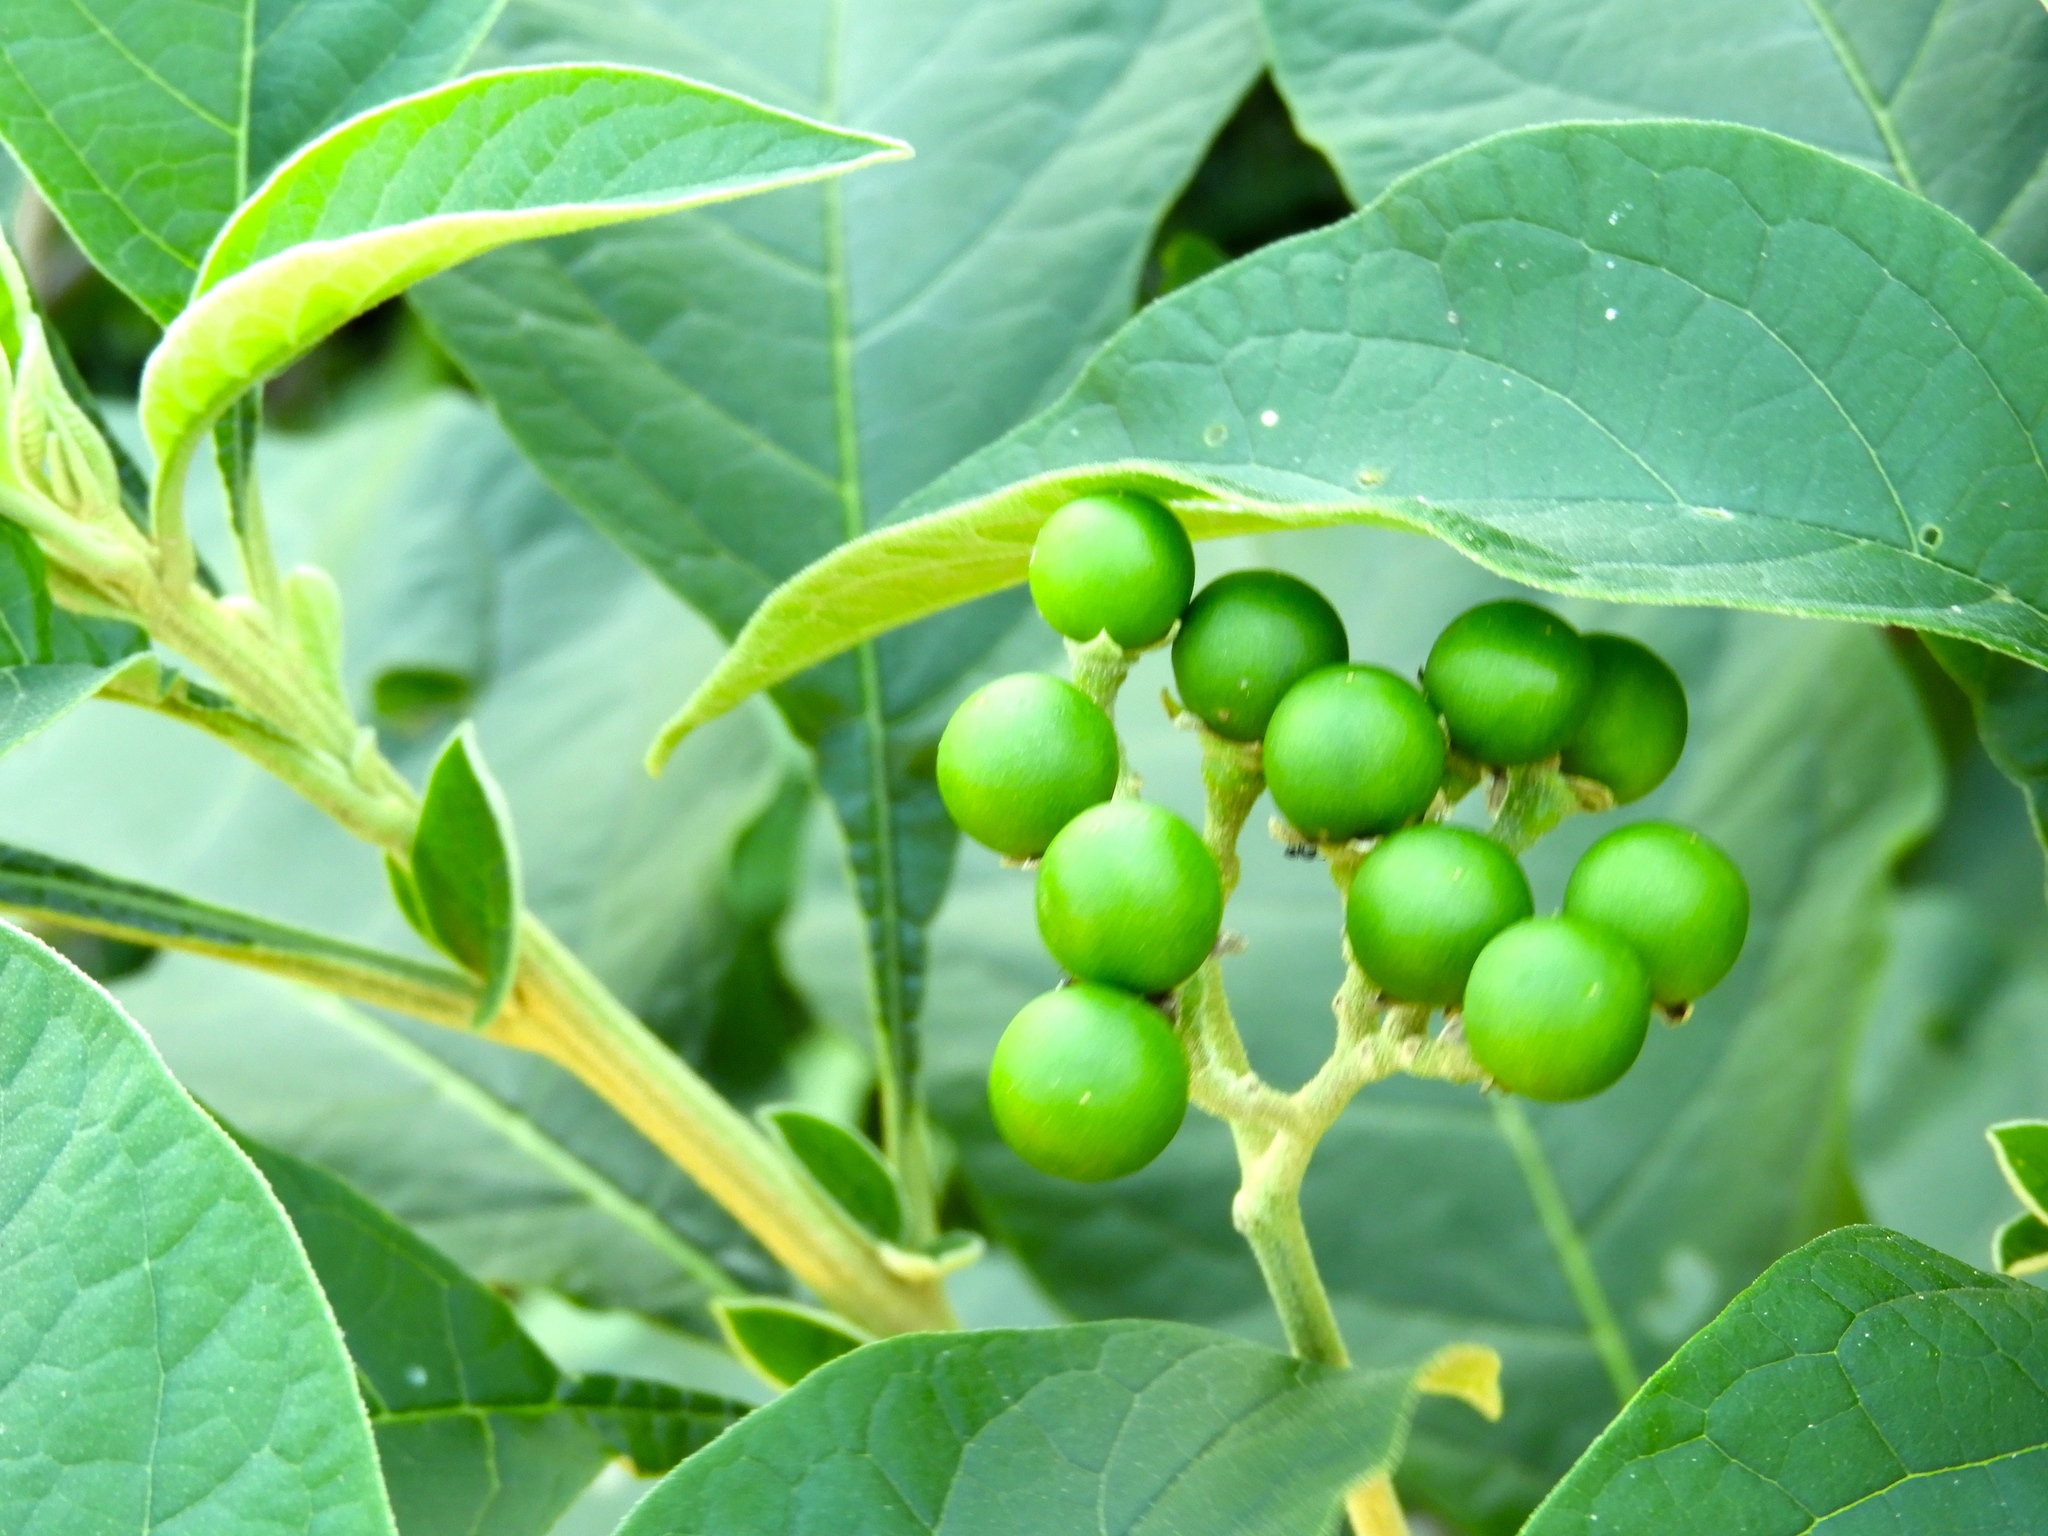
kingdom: Plantae
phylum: Tracheophyta
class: Magnoliopsida
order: Solanales
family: Solanaceae
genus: Solanum
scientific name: Solanum hazenii
